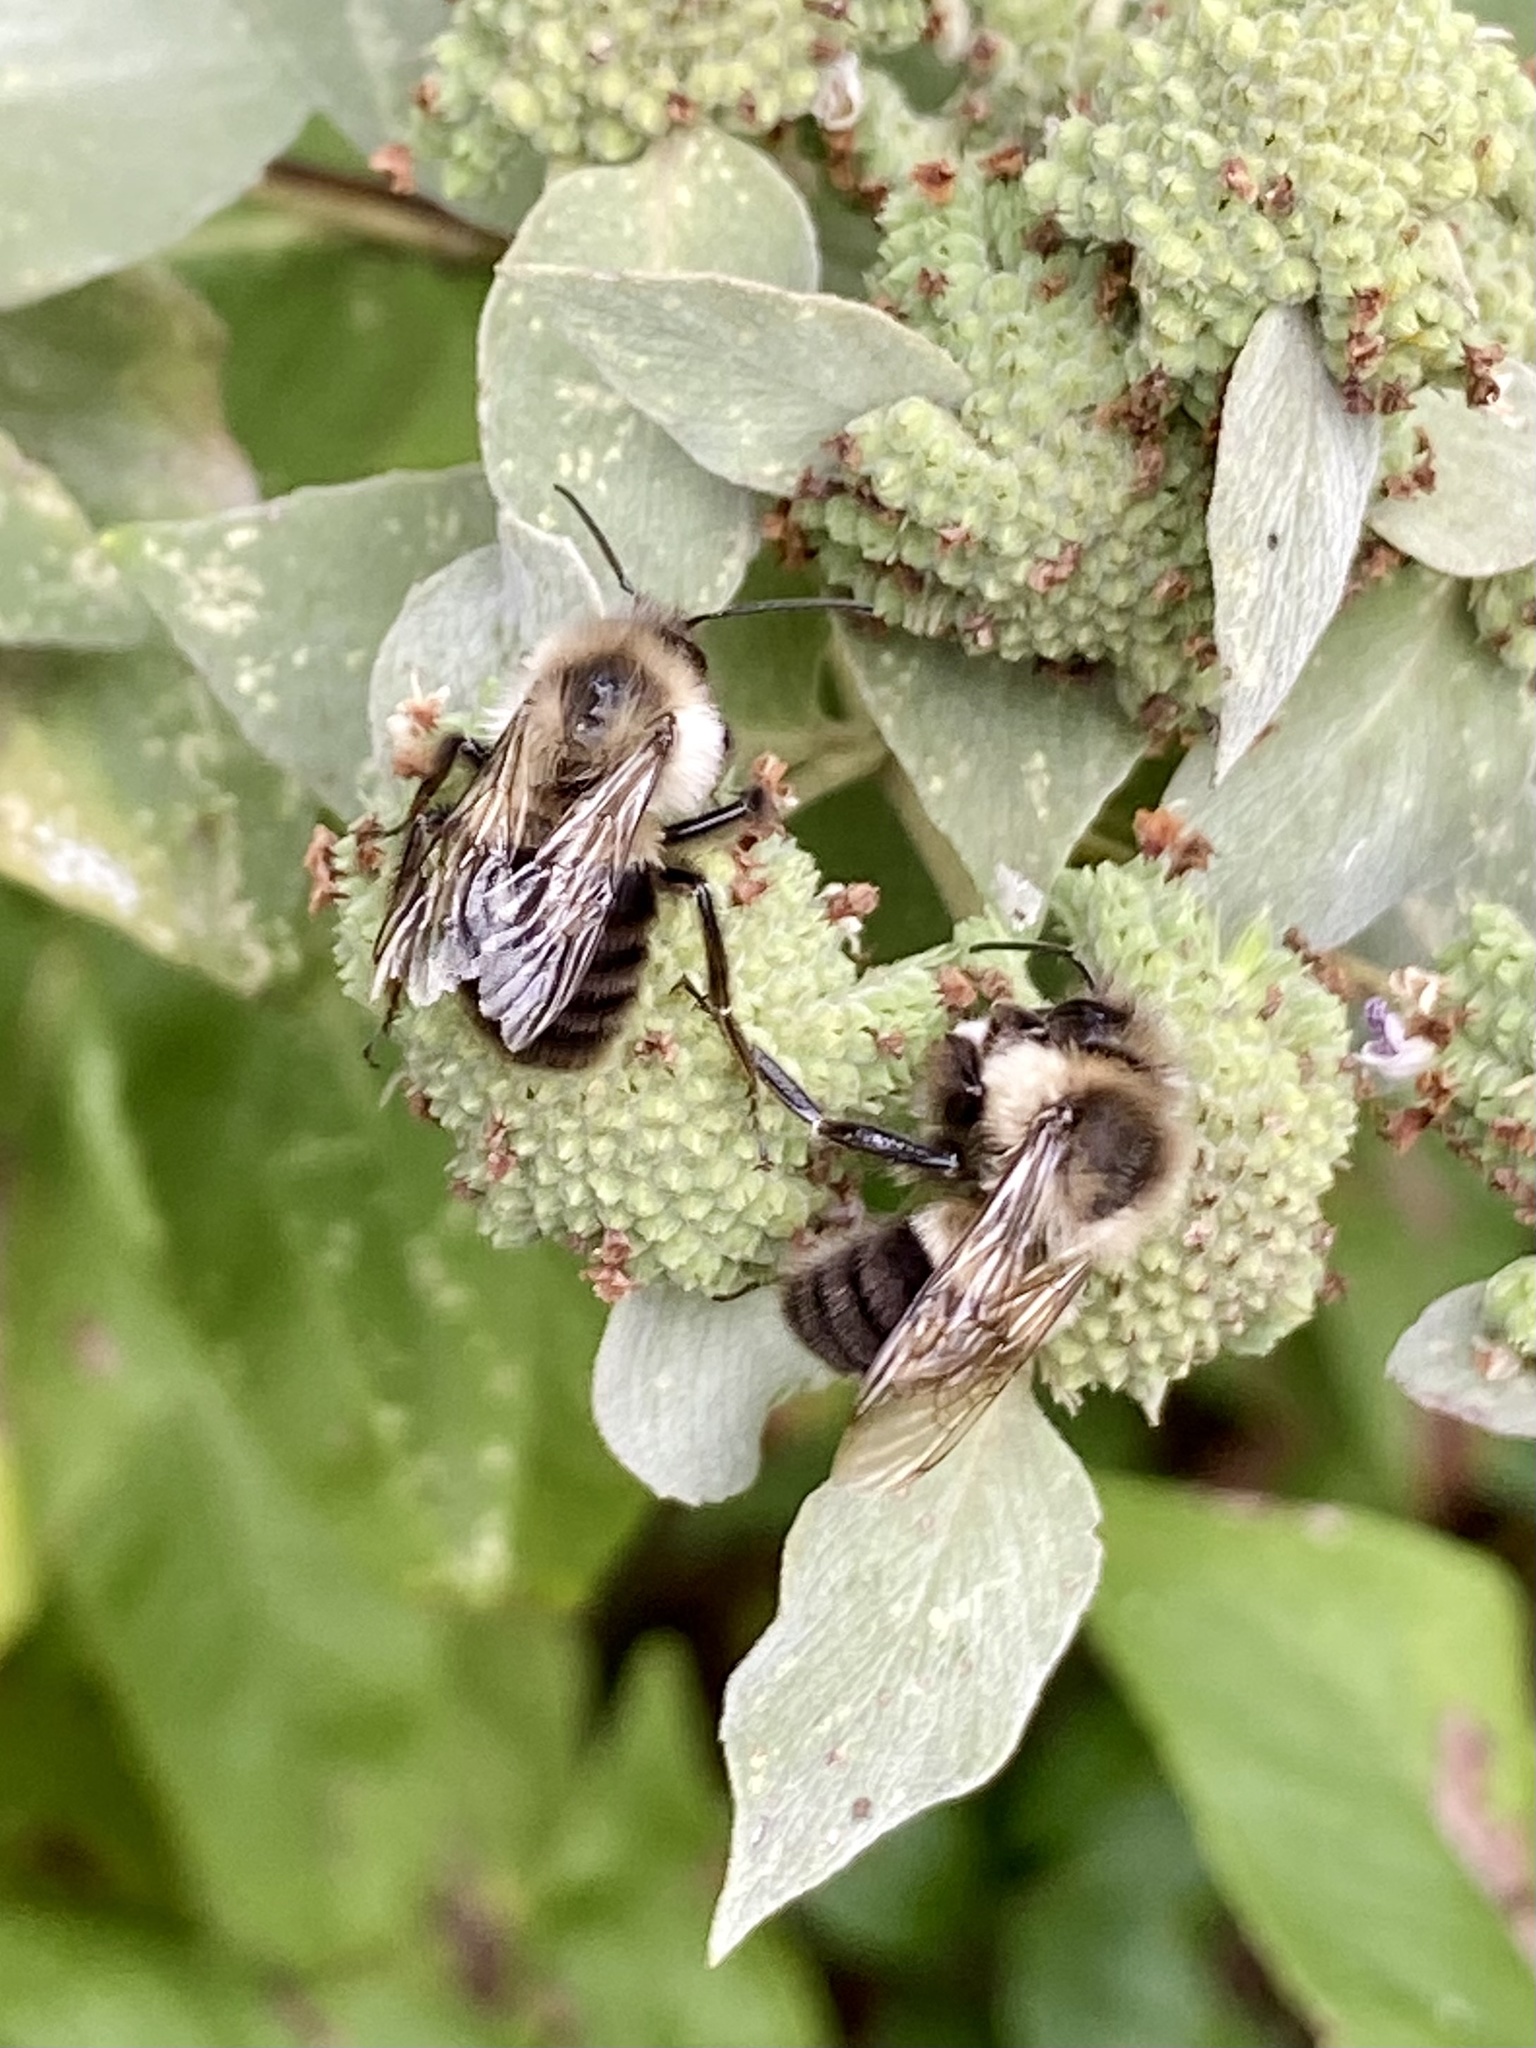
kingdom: Animalia
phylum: Arthropoda
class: Insecta
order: Hymenoptera
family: Apidae
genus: Bombus
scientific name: Bombus impatiens
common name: Common eastern bumble bee
